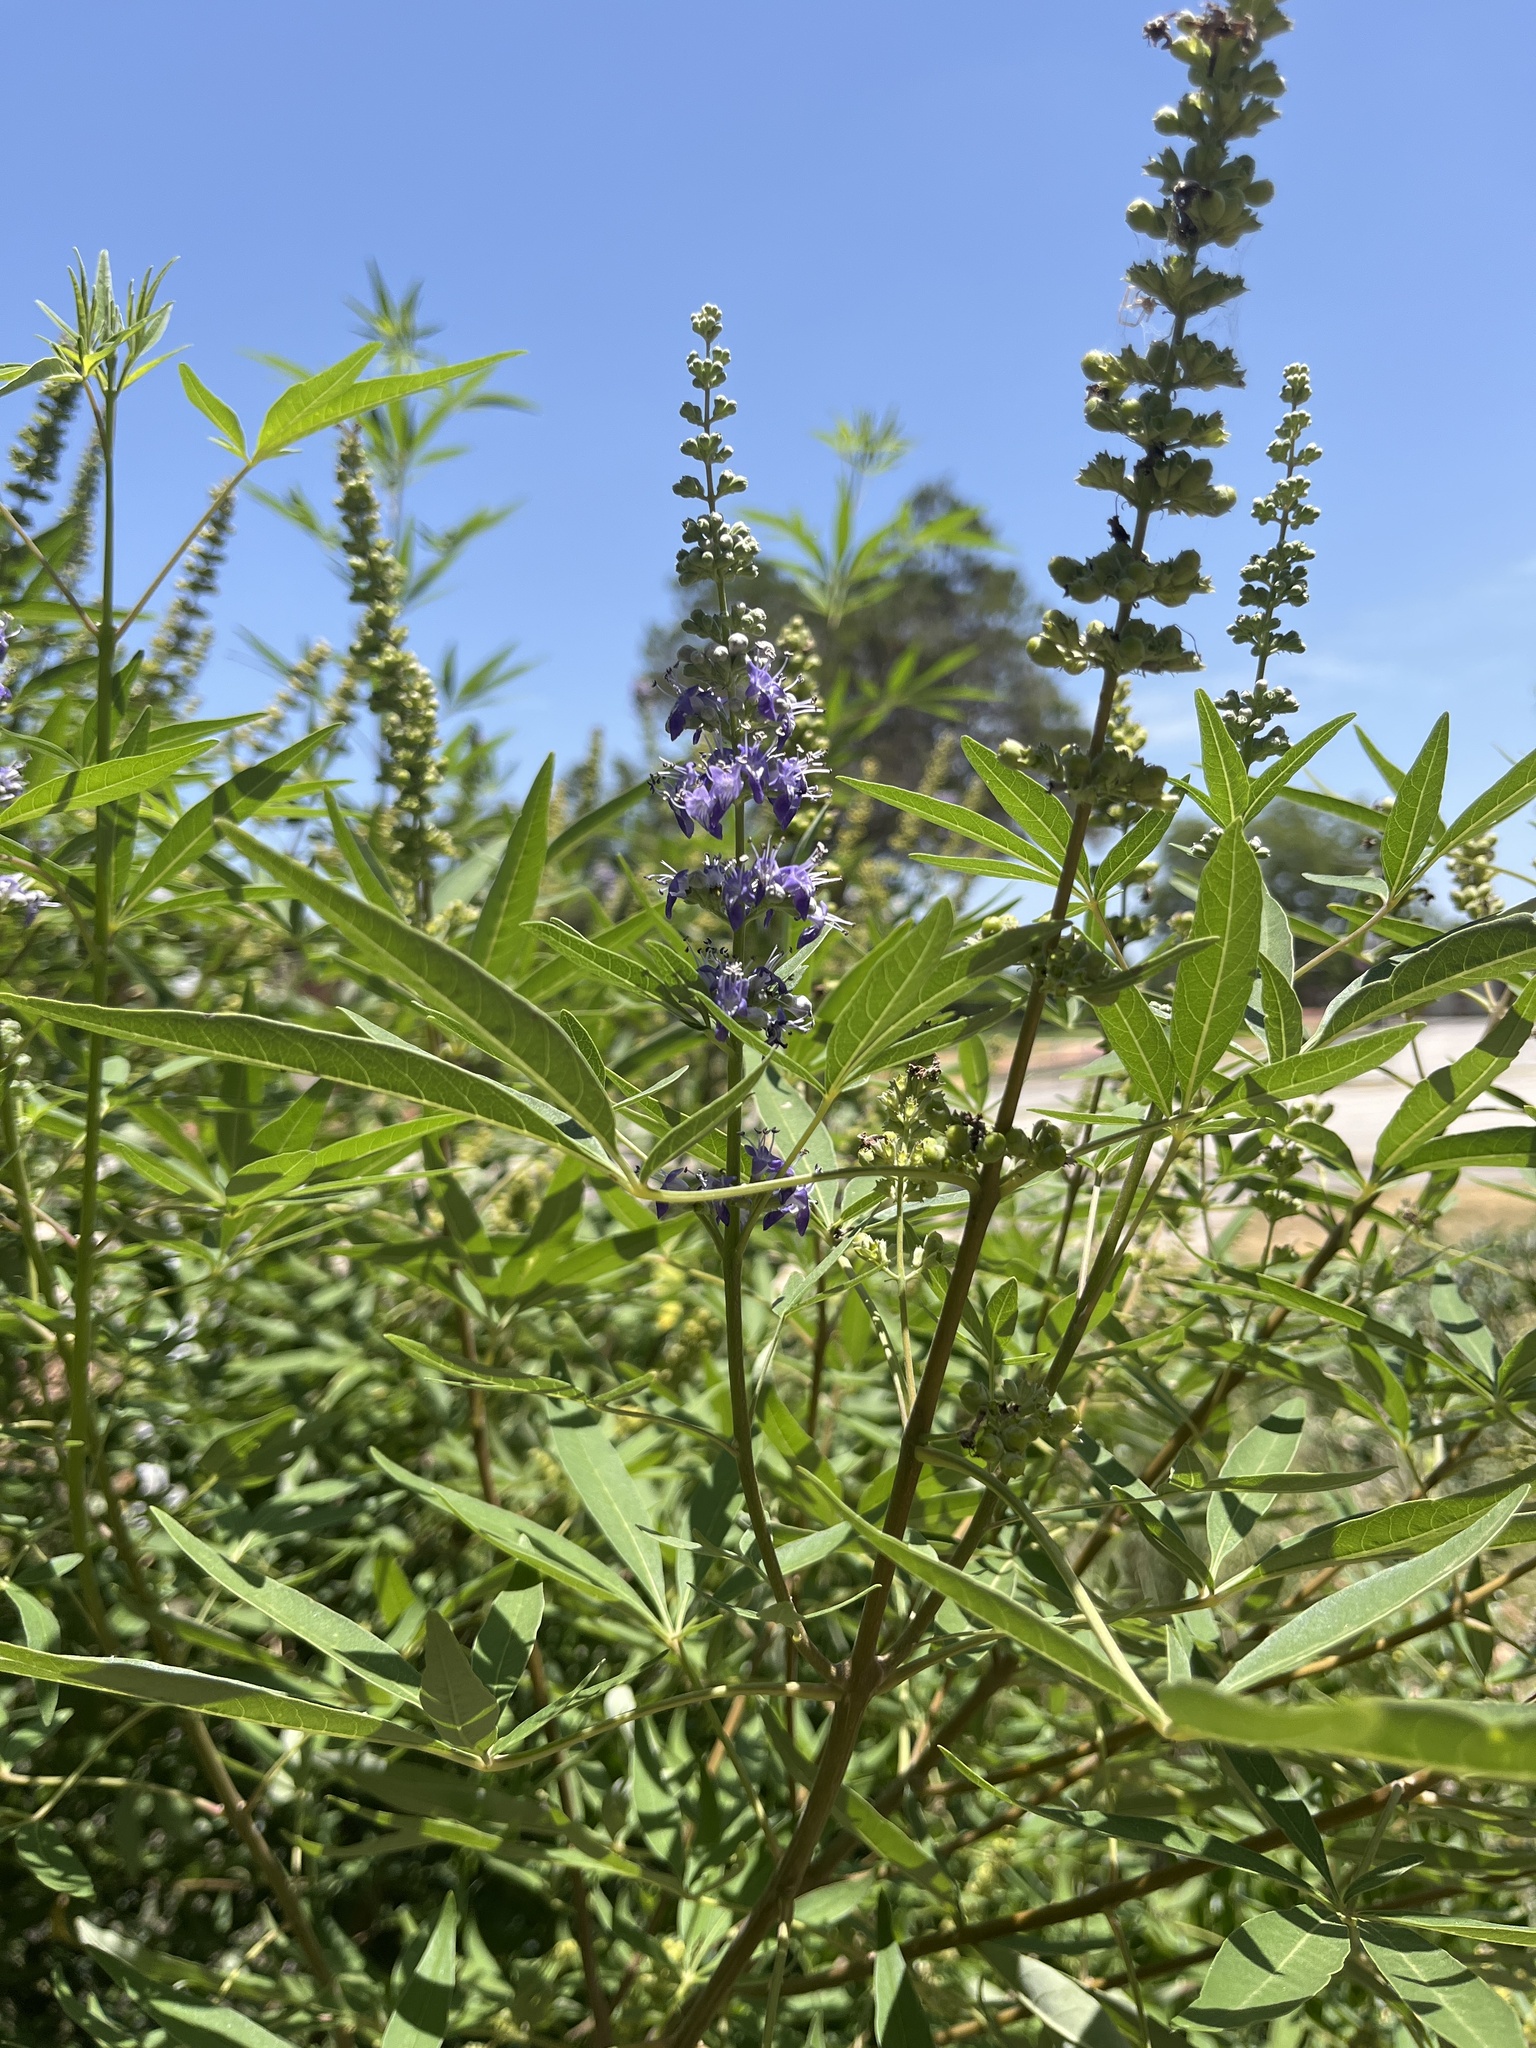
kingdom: Plantae
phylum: Tracheophyta
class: Magnoliopsida
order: Lamiales
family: Lamiaceae
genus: Vitex
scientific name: Vitex agnus-castus
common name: Chasteberry
